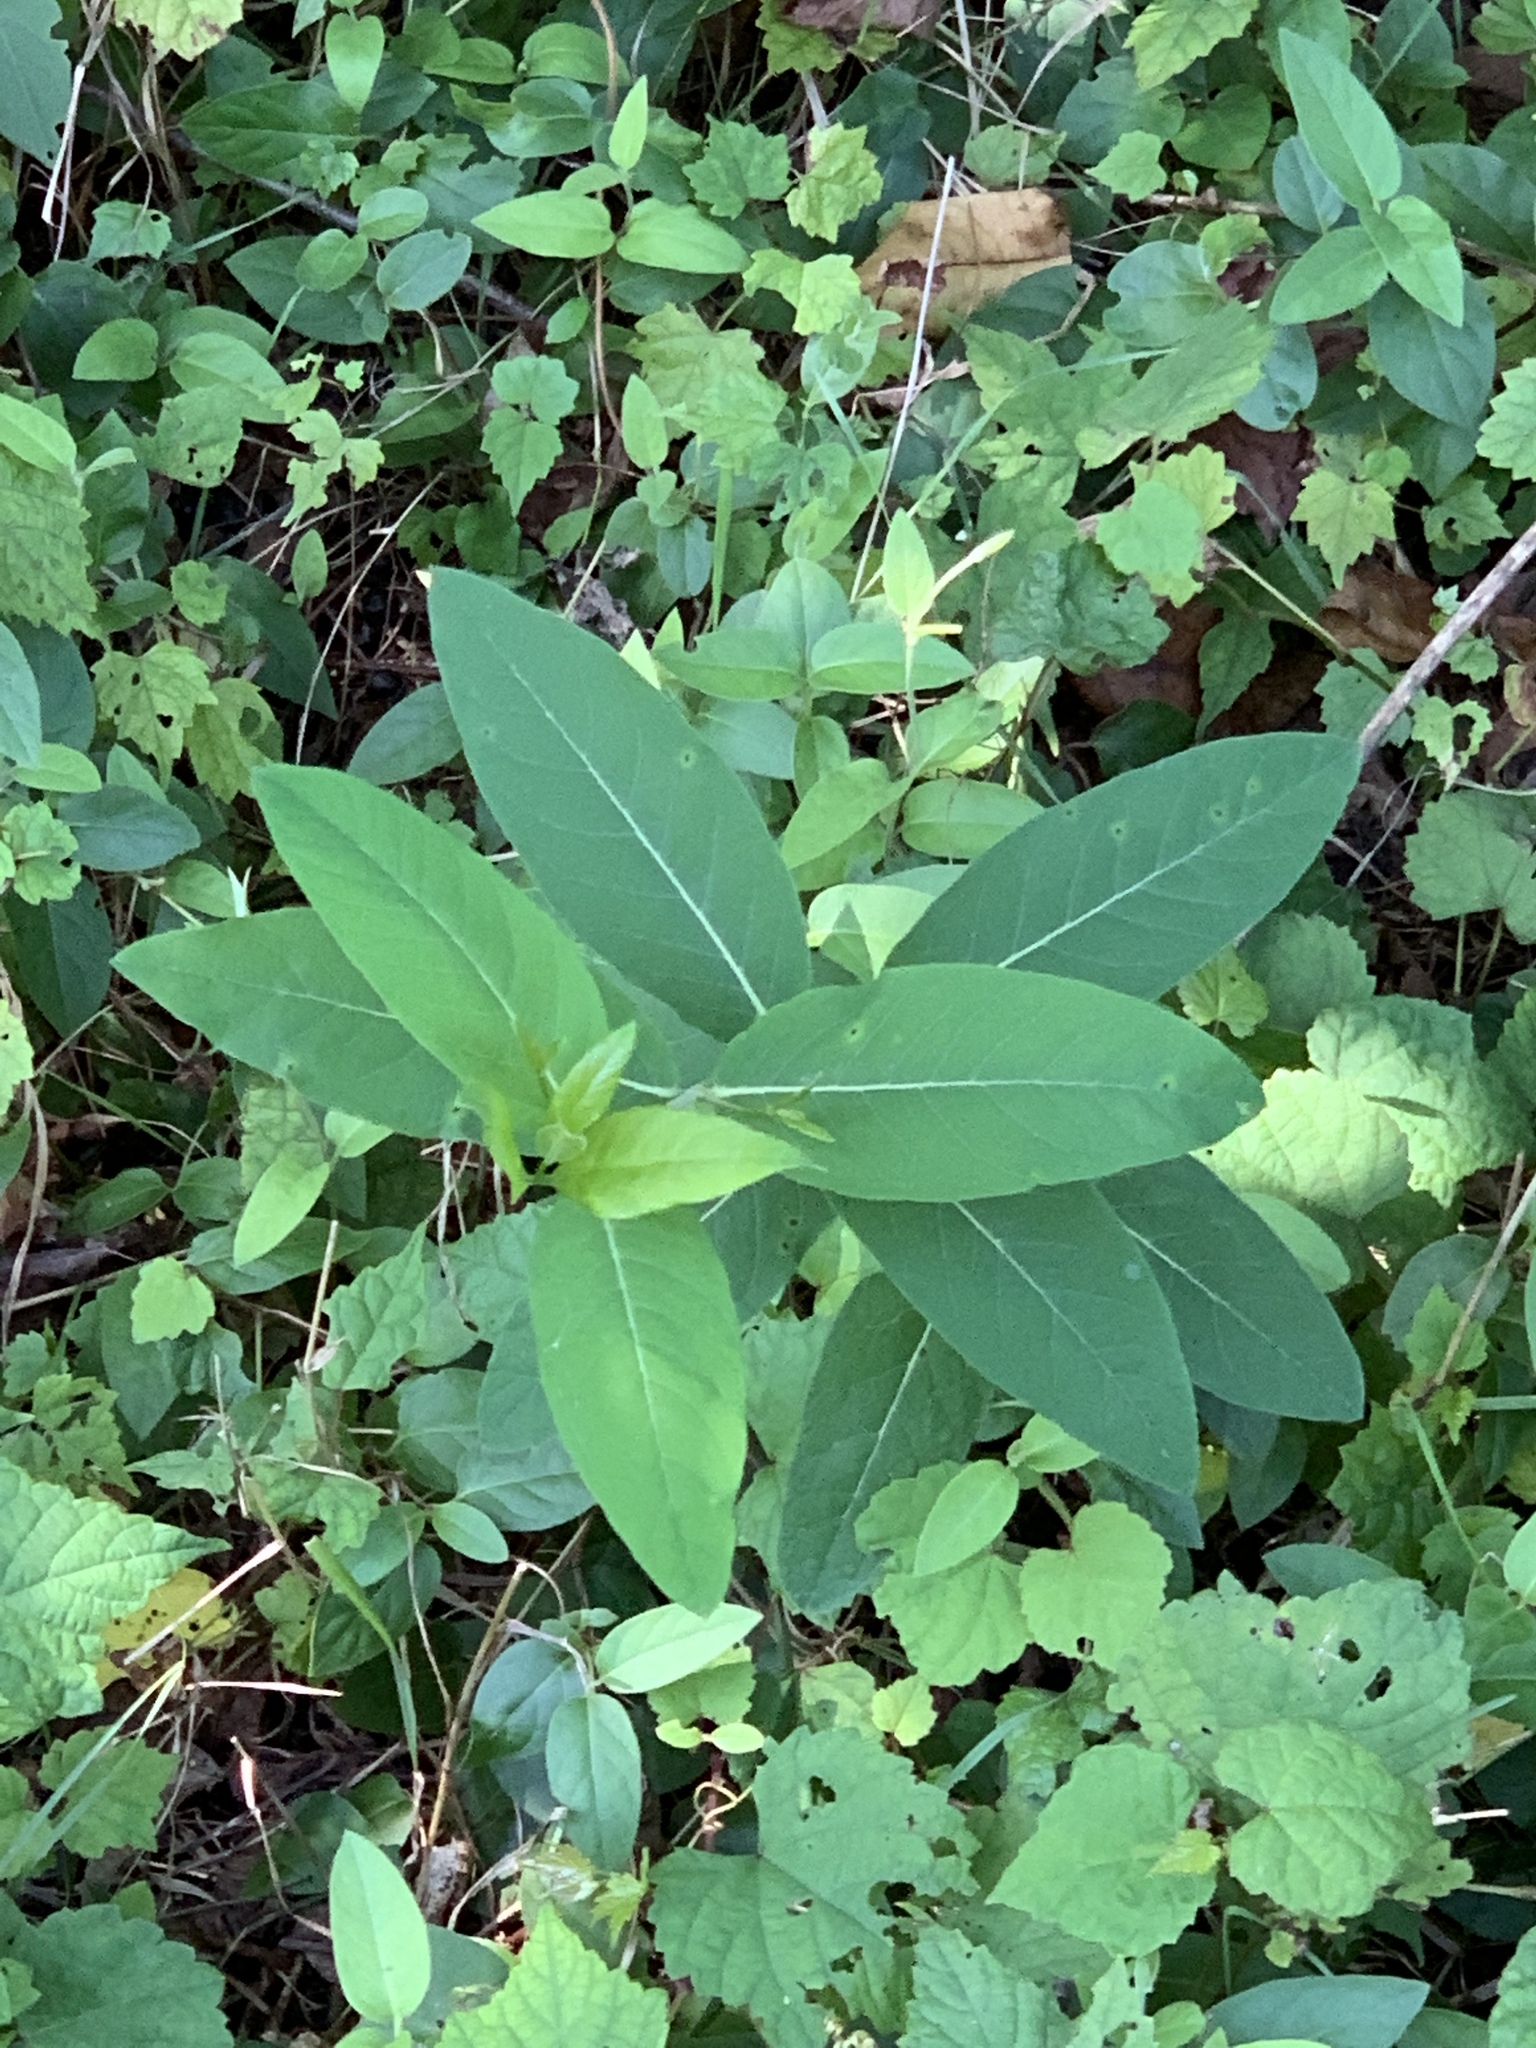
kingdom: Plantae
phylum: Tracheophyta
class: Magnoliopsida
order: Gentianales
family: Apocynaceae
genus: Apocynum
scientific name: Apocynum cannabinum
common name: Hemp dogbane
